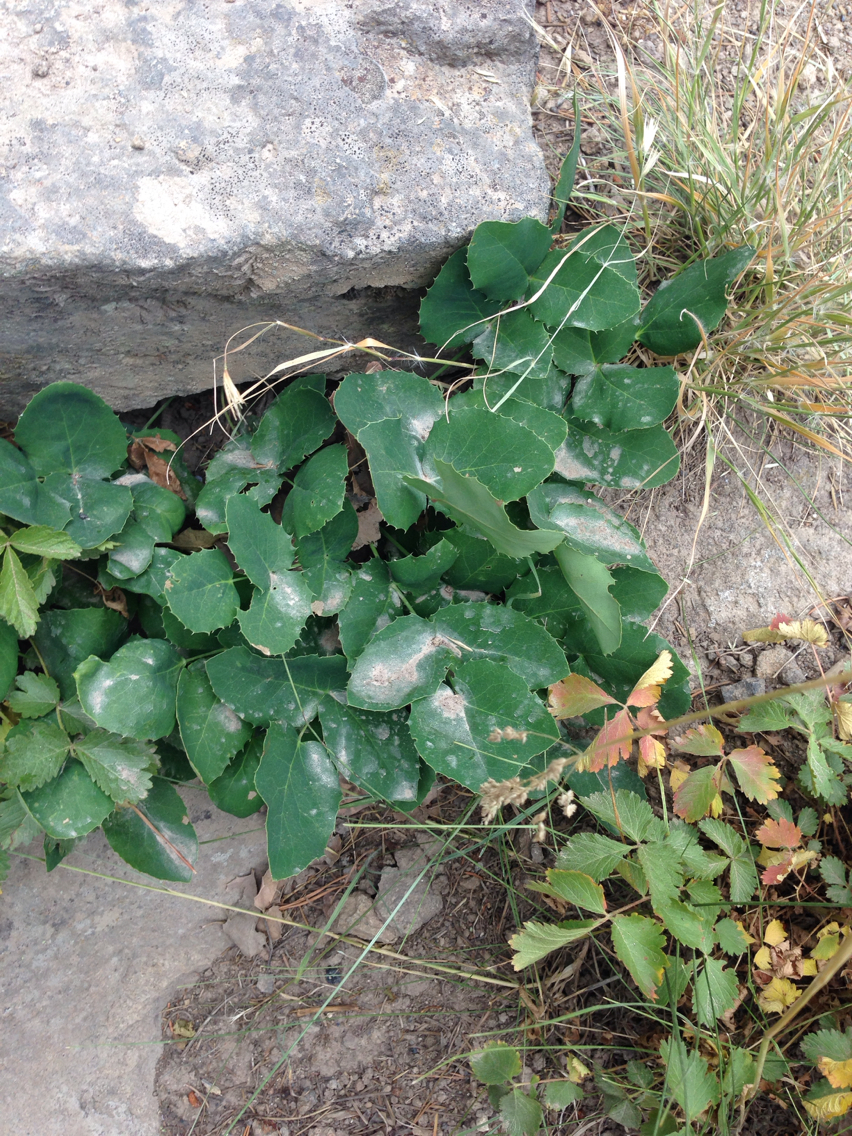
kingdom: Plantae
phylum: Tracheophyta
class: Magnoliopsida
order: Ranunculales
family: Berberidaceae
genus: Mahonia
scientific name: Mahonia repens
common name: Creeping oregon-grape
